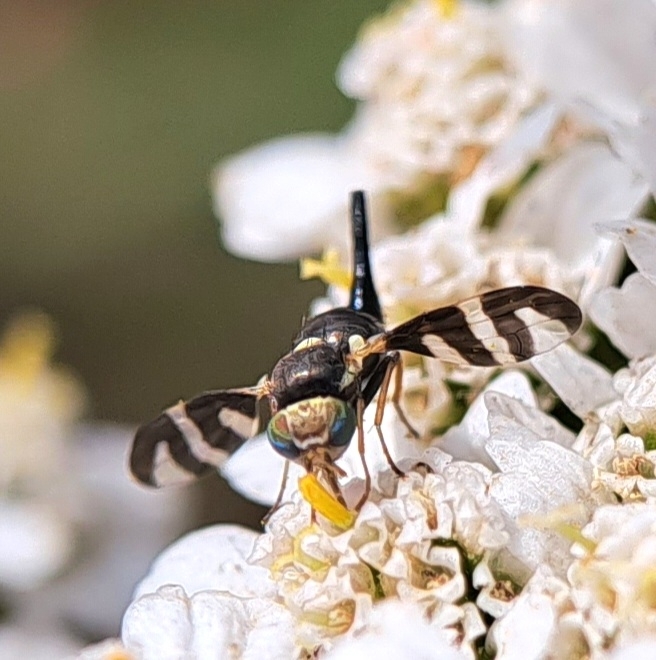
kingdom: Animalia
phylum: Arthropoda
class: Insecta
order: Diptera
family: Tephritidae
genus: Urophora
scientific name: Urophora quadrifasciata
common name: Knapweed seedhead fly
